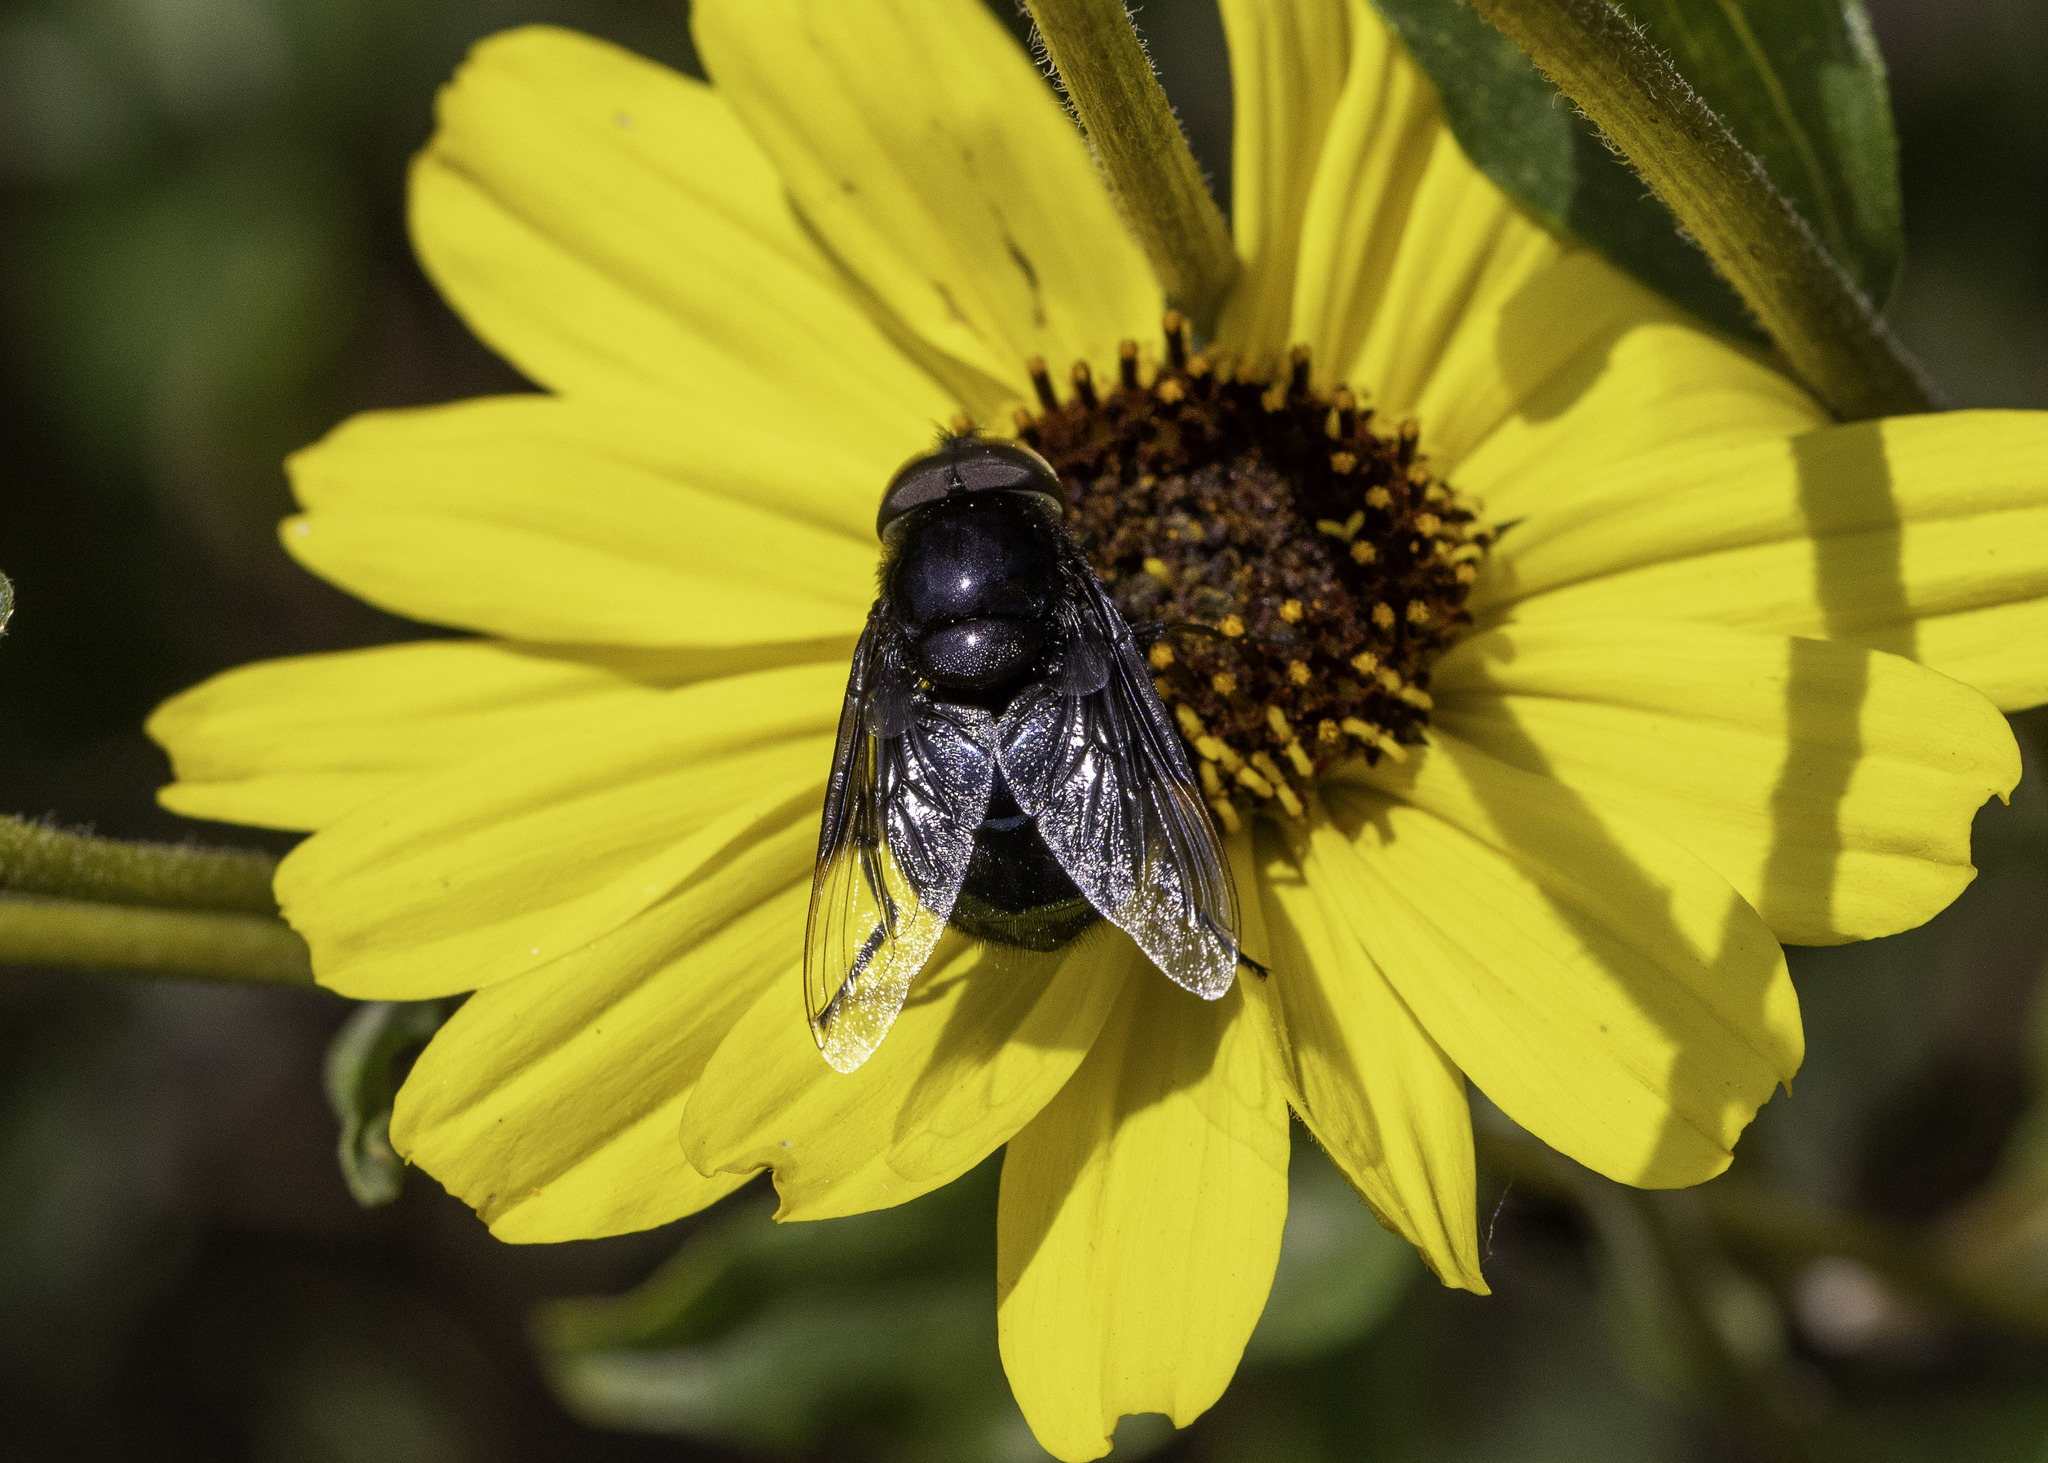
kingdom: Animalia
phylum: Arthropoda
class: Insecta
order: Diptera
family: Syrphidae
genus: Copestylum
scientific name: Copestylum
